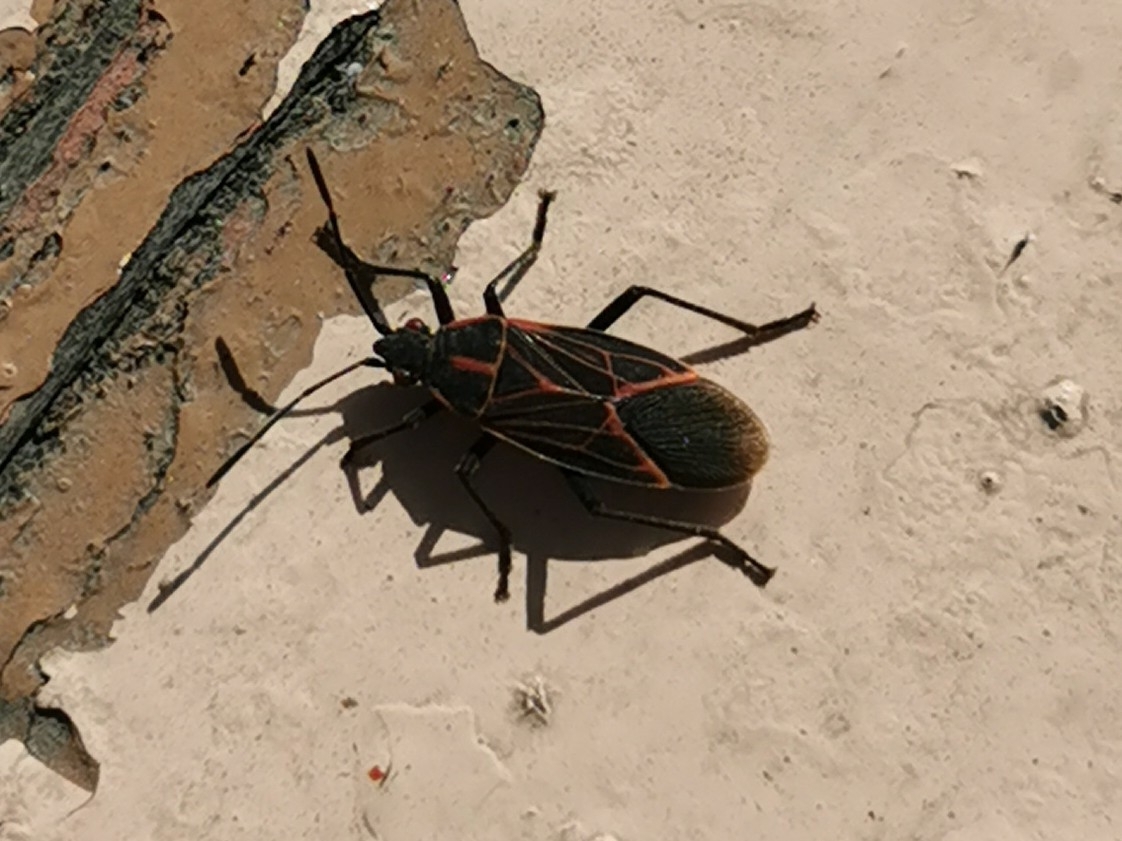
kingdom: Animalia
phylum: Arthropoda
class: Insecta
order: Hemiptera
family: Rhopalidae
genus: Boisea
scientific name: Boisea rubrolineata
